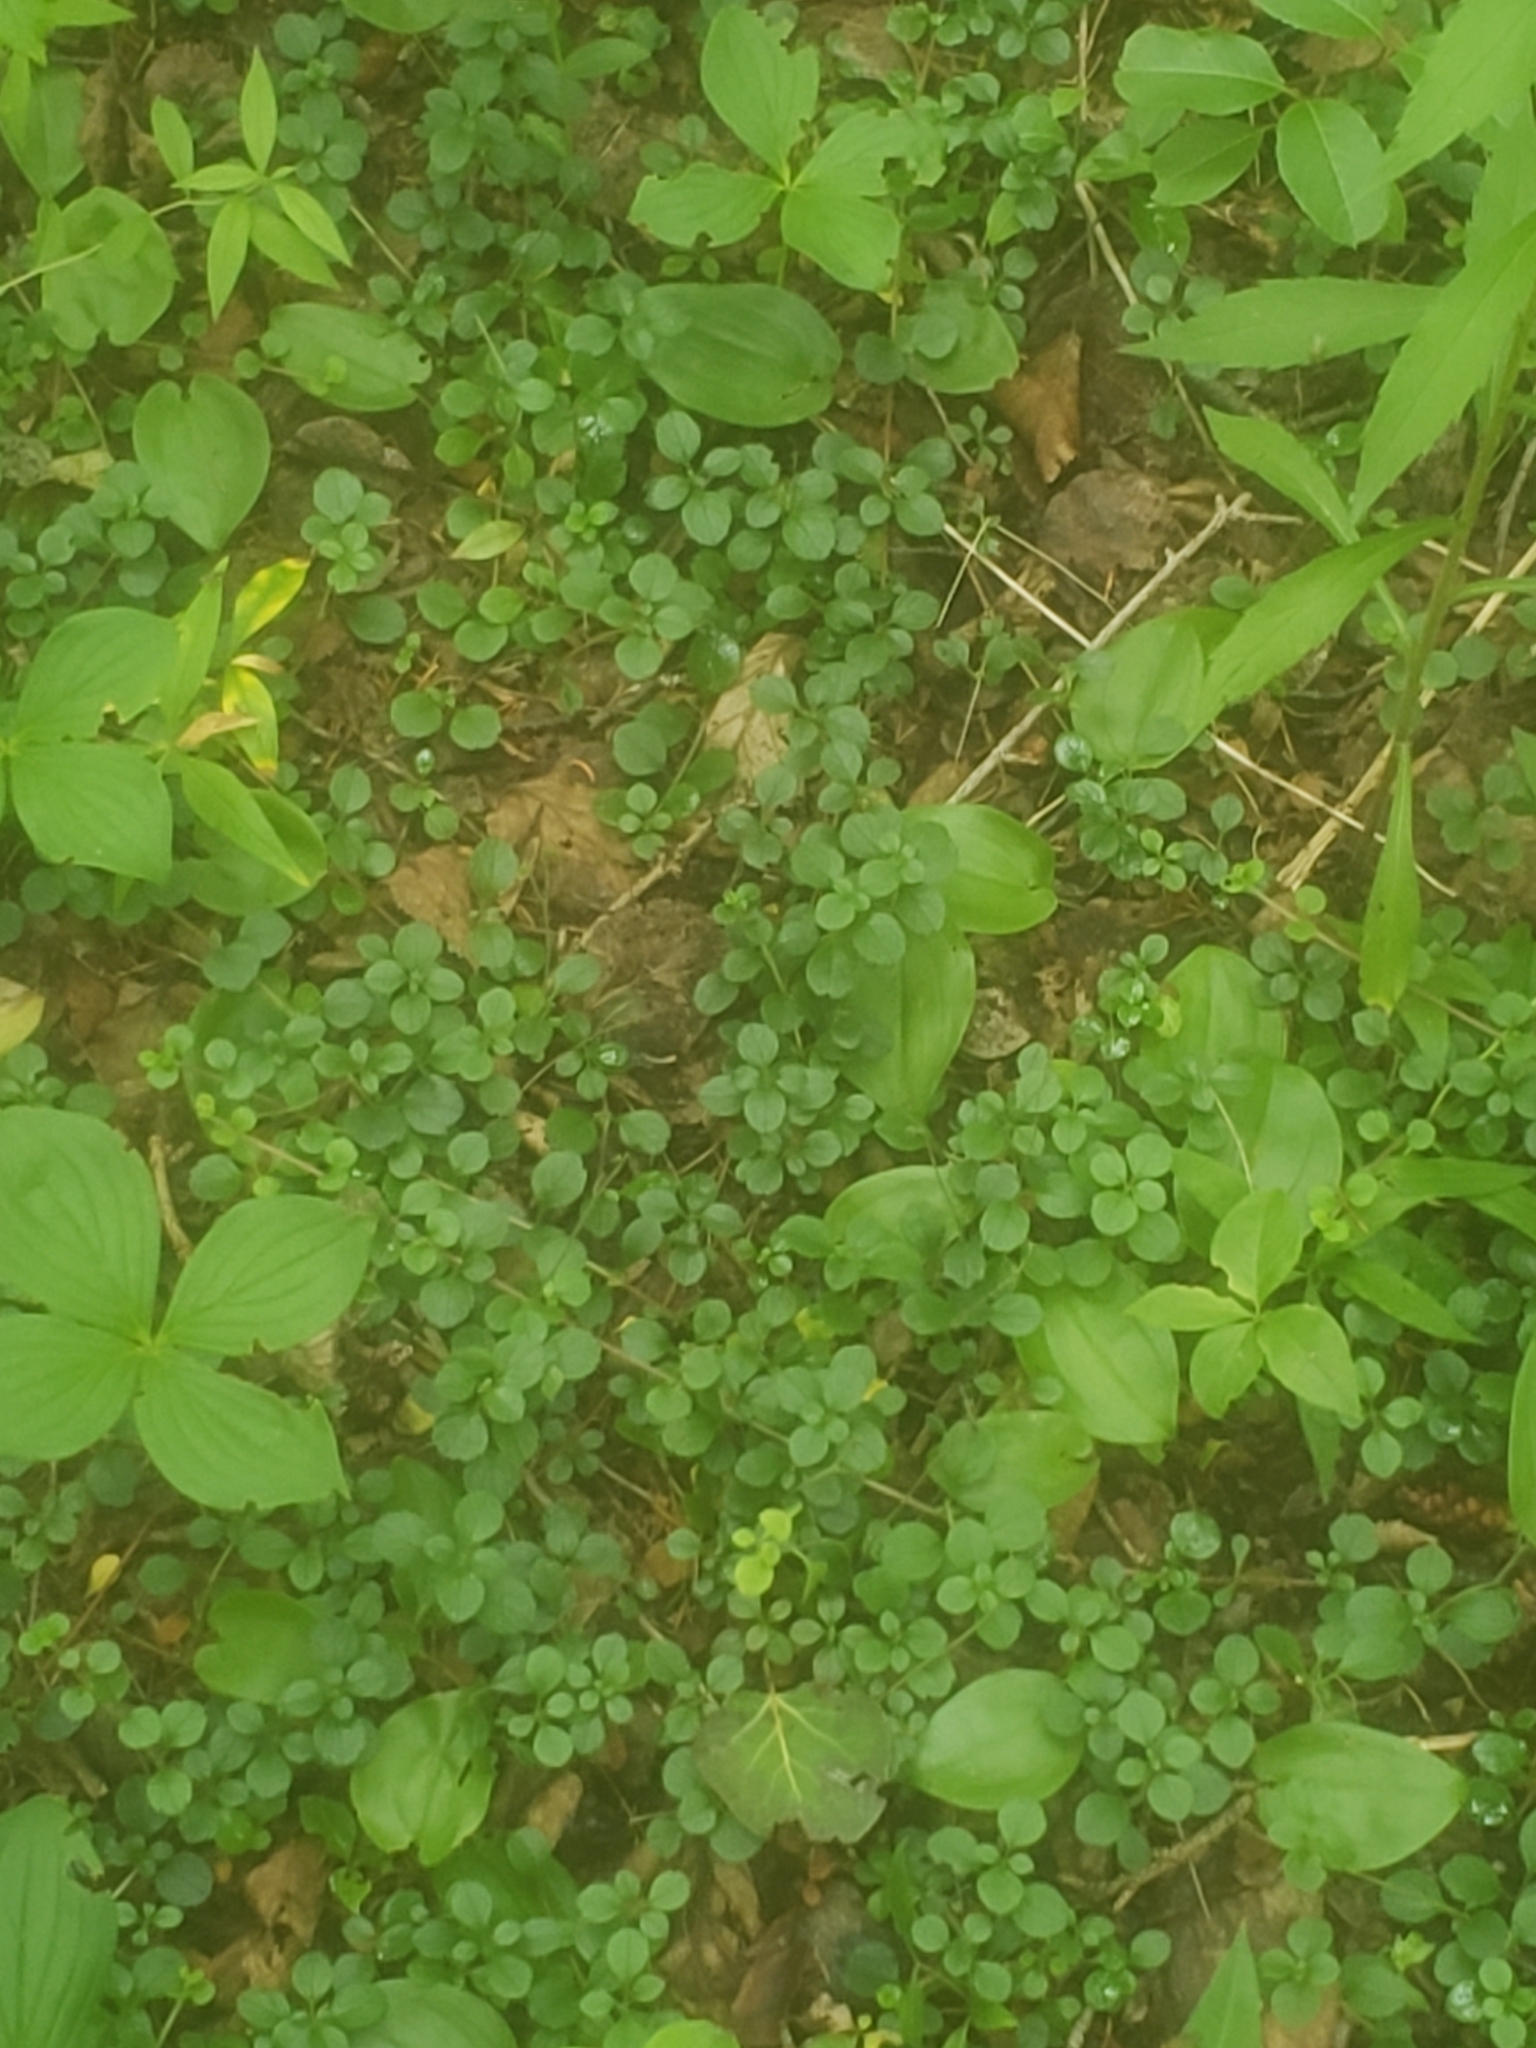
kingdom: Plantae
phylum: Tracheophyta
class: Magnoliopsida
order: Dipsacales
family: Caprifoliaceae
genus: Linnaea
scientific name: Linnaea borealis
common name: Twinflower
